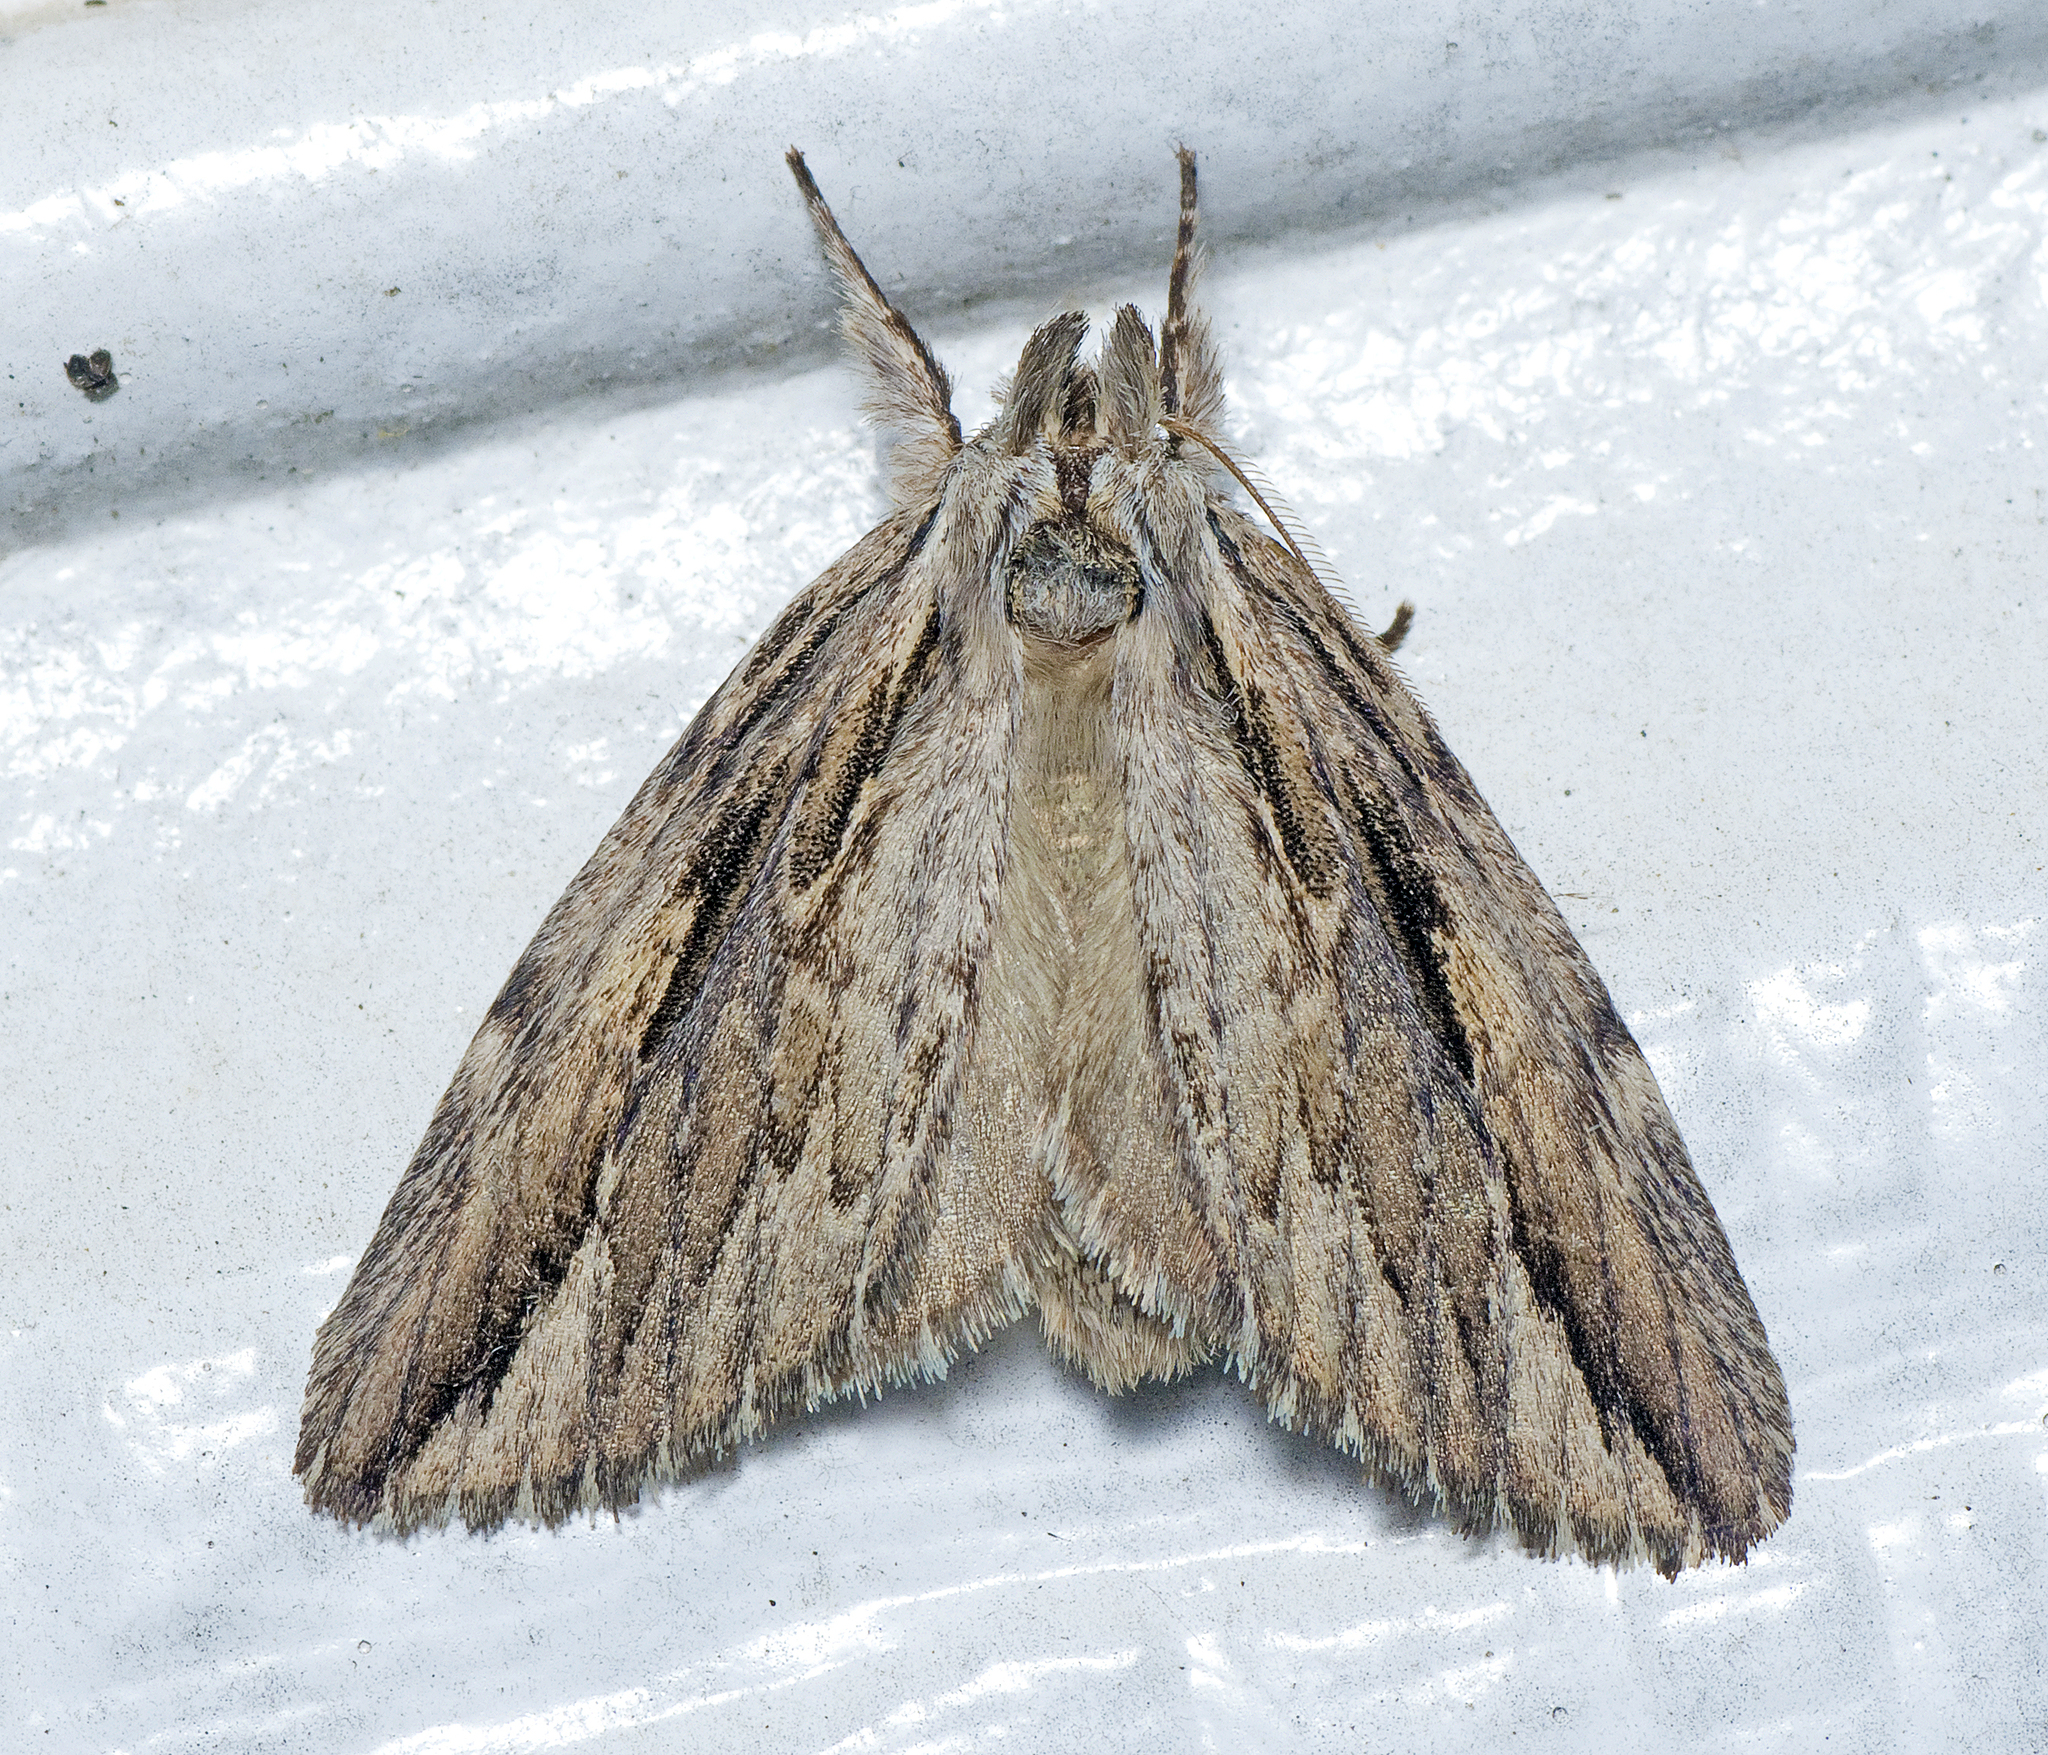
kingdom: Animalia
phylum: Arthropoda
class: Insecta
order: Lepidoptera
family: Notodontidae
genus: Ecnomodes
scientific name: Ecnomodes sagittaria
